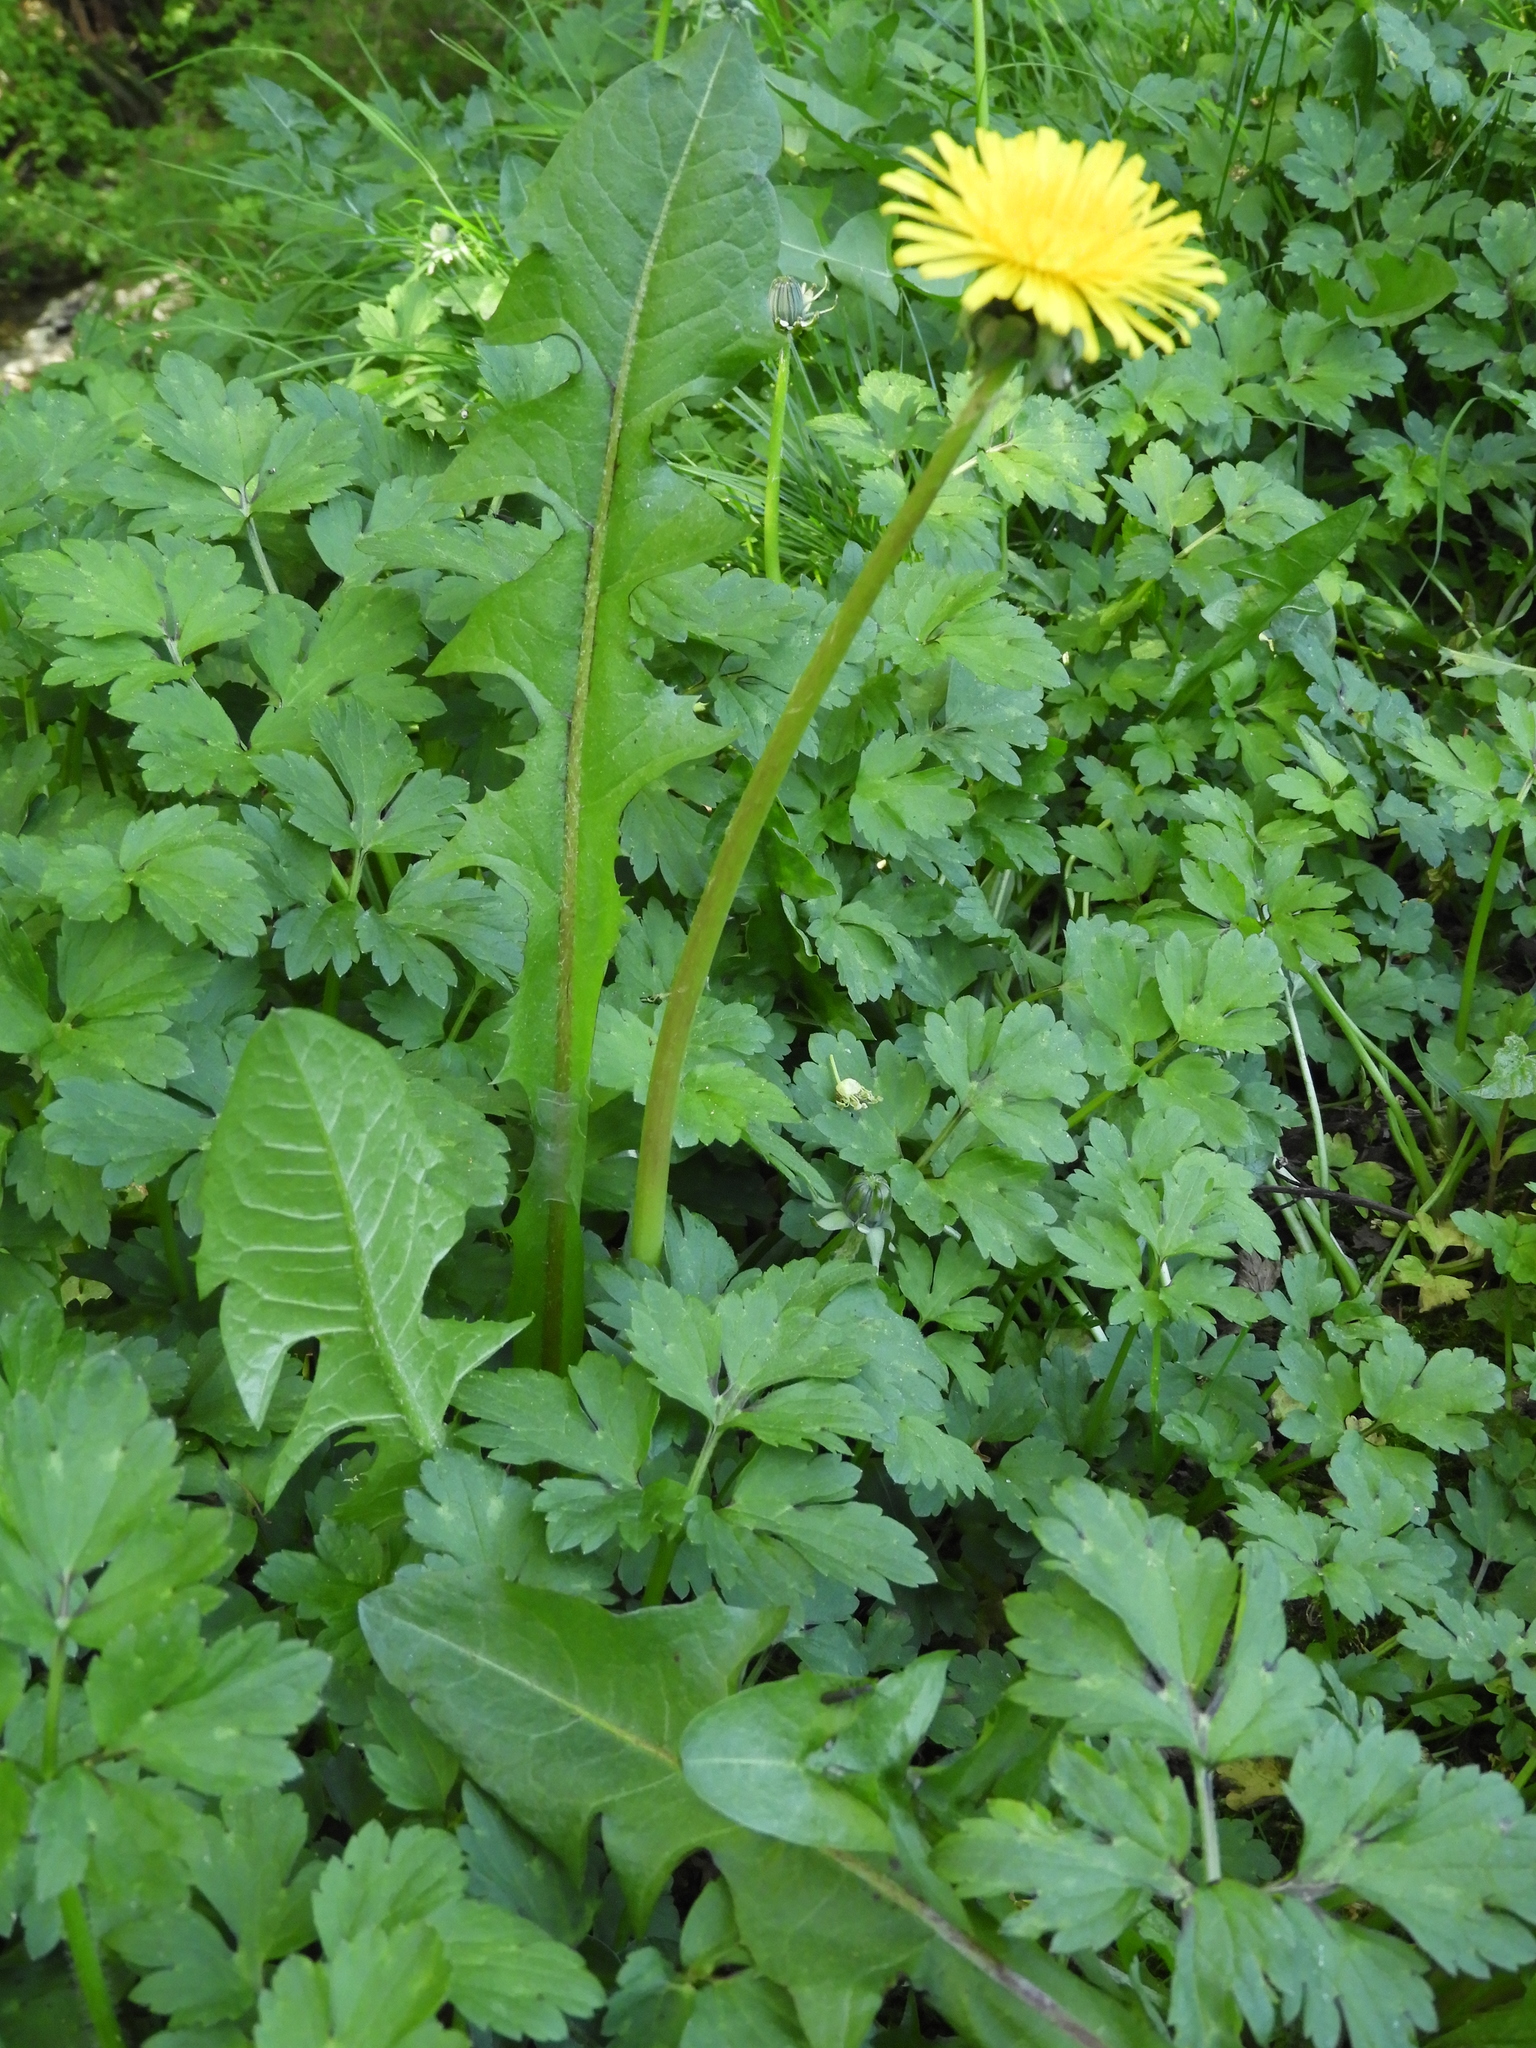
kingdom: Plantae
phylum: Tracheophyta
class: Magnoliopsida
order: Asterales
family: Asteraceae
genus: Taraxacum
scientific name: Taraxacum officinale
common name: Common dandelion
